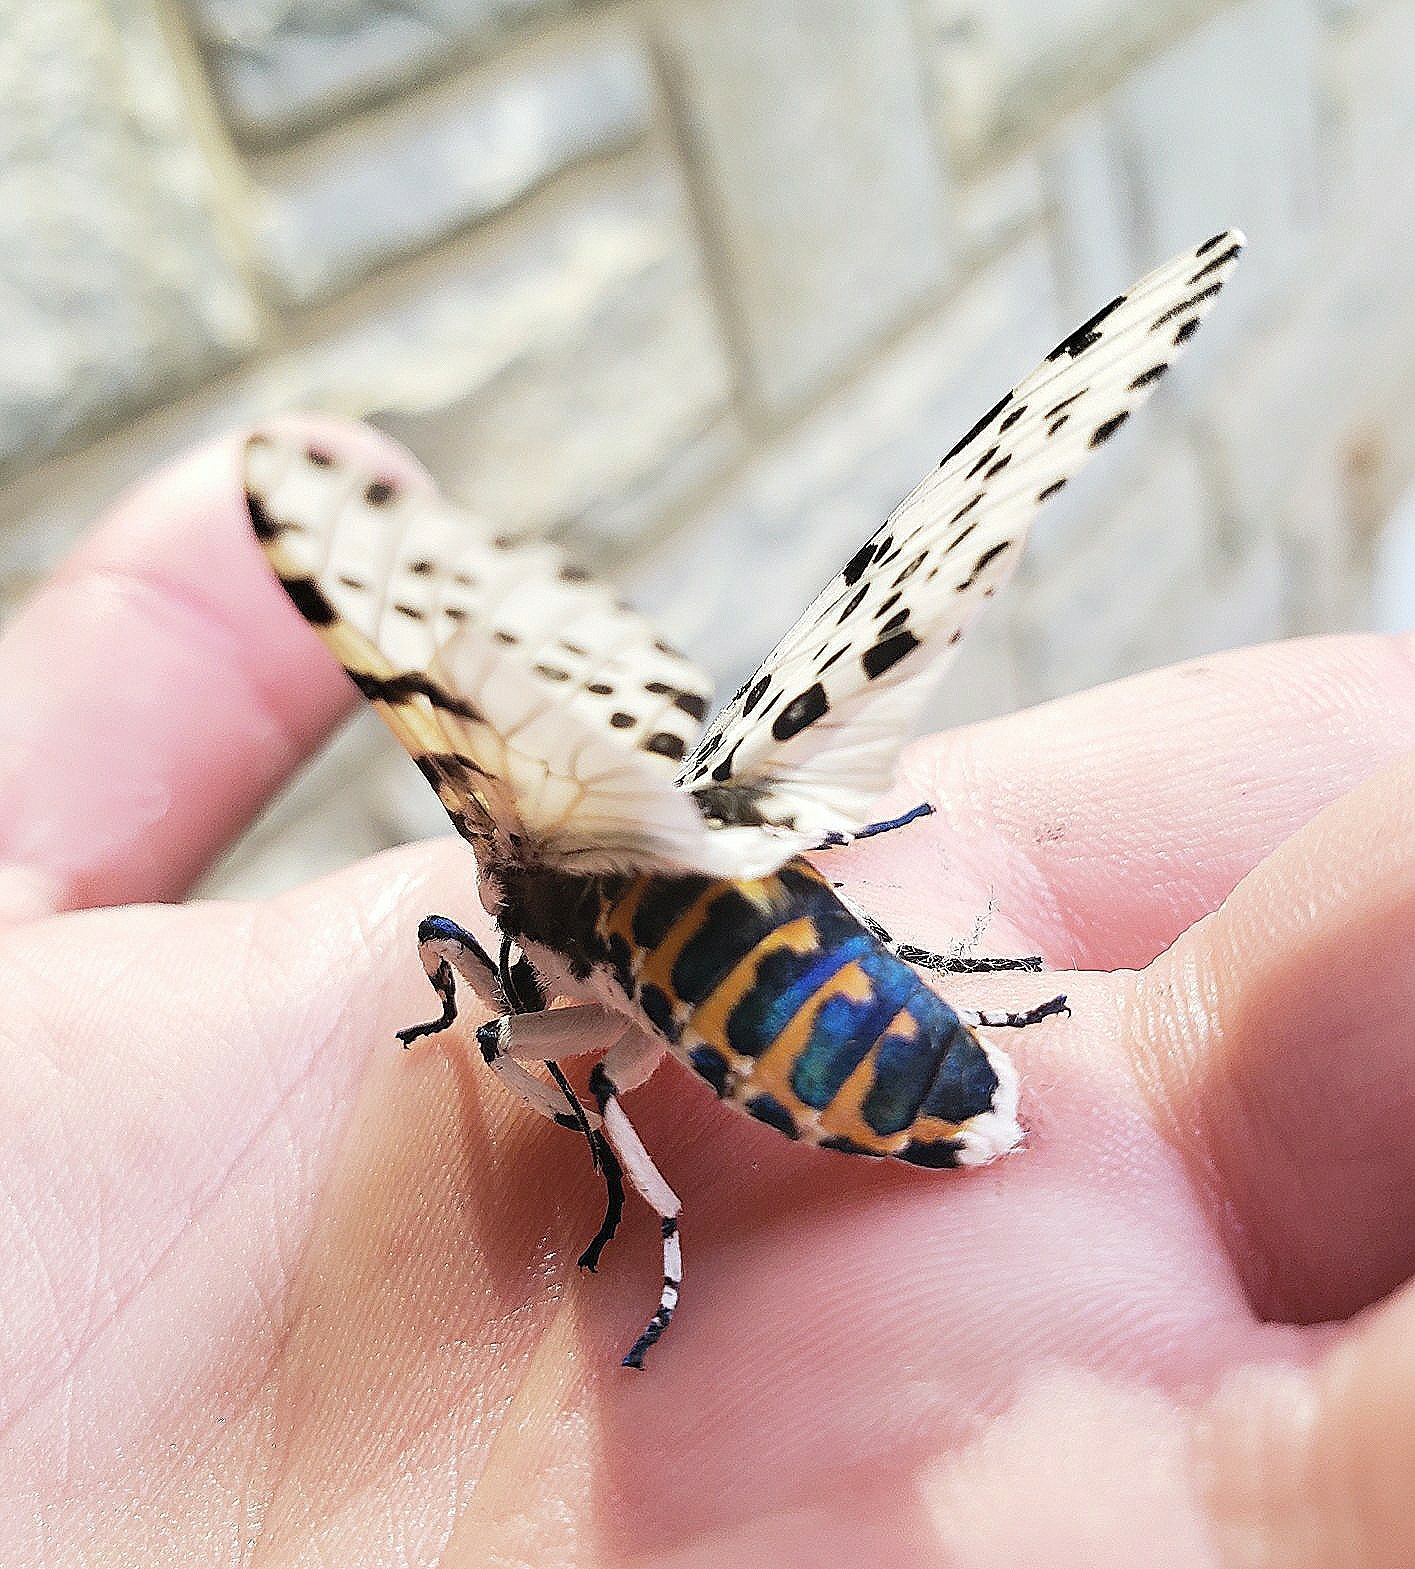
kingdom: Animalia
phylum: Arthropoda
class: Insecta
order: Lepidoptera
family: Erebidae
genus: Hypercompe
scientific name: Hypercompe scribonia
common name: Giant leopard moth
